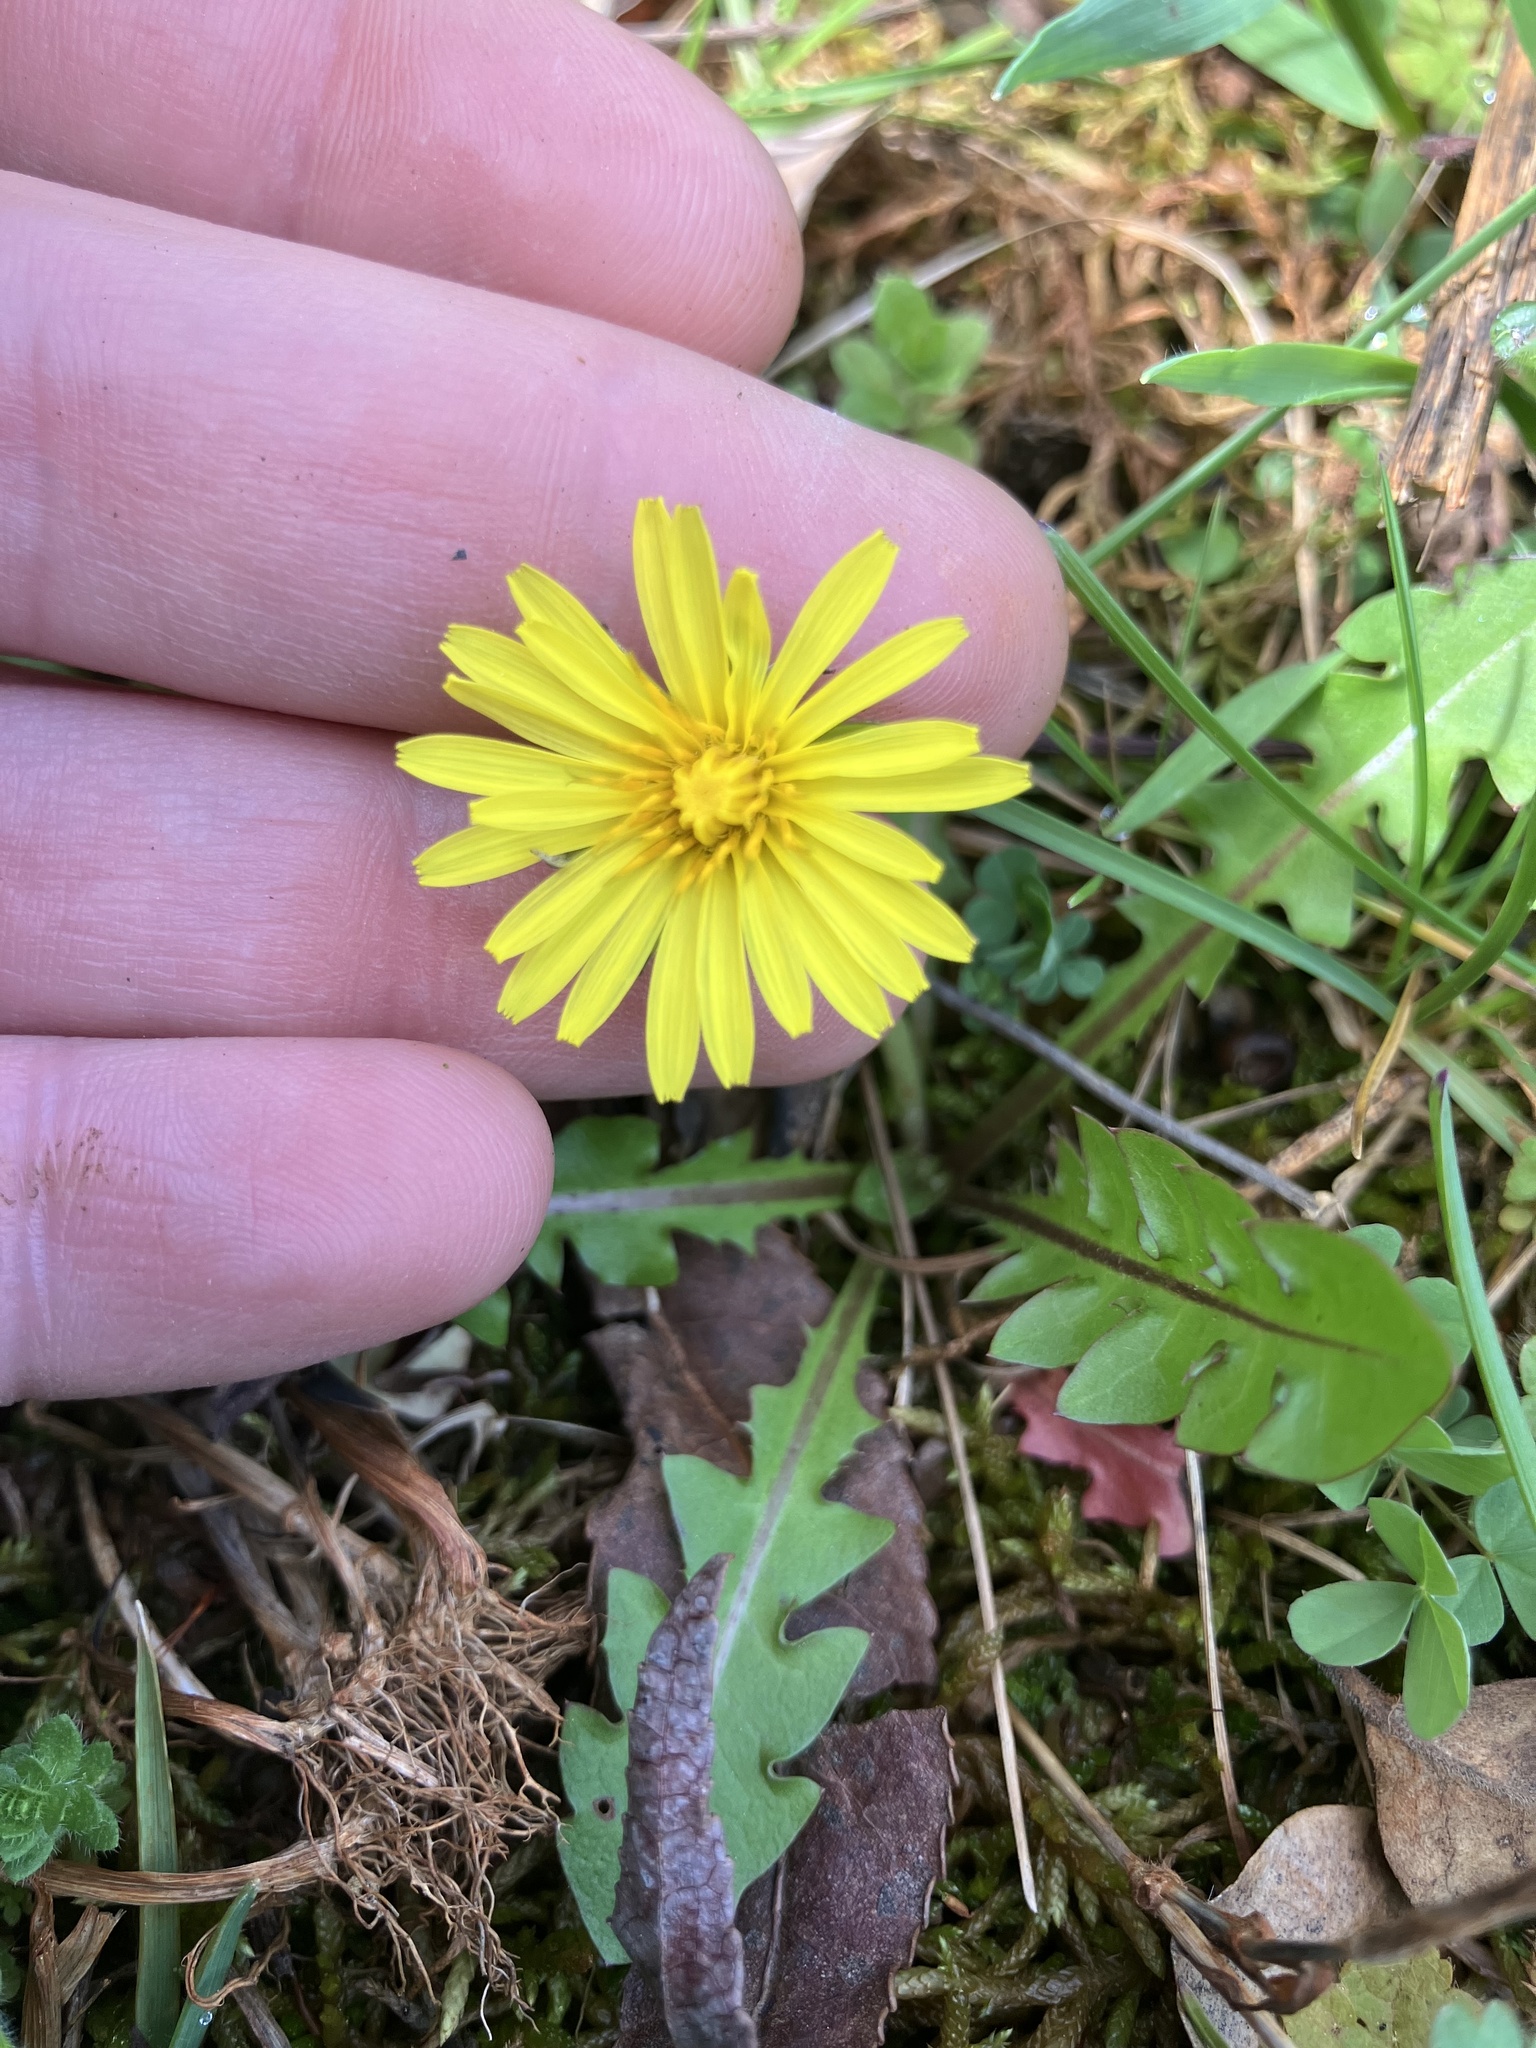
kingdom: Plantae
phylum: Tracheophyta
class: Magnoliopsida
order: Asterales
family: Asteraceae
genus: Taraxacum
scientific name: Taraxacum officinale
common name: Common dandelion
